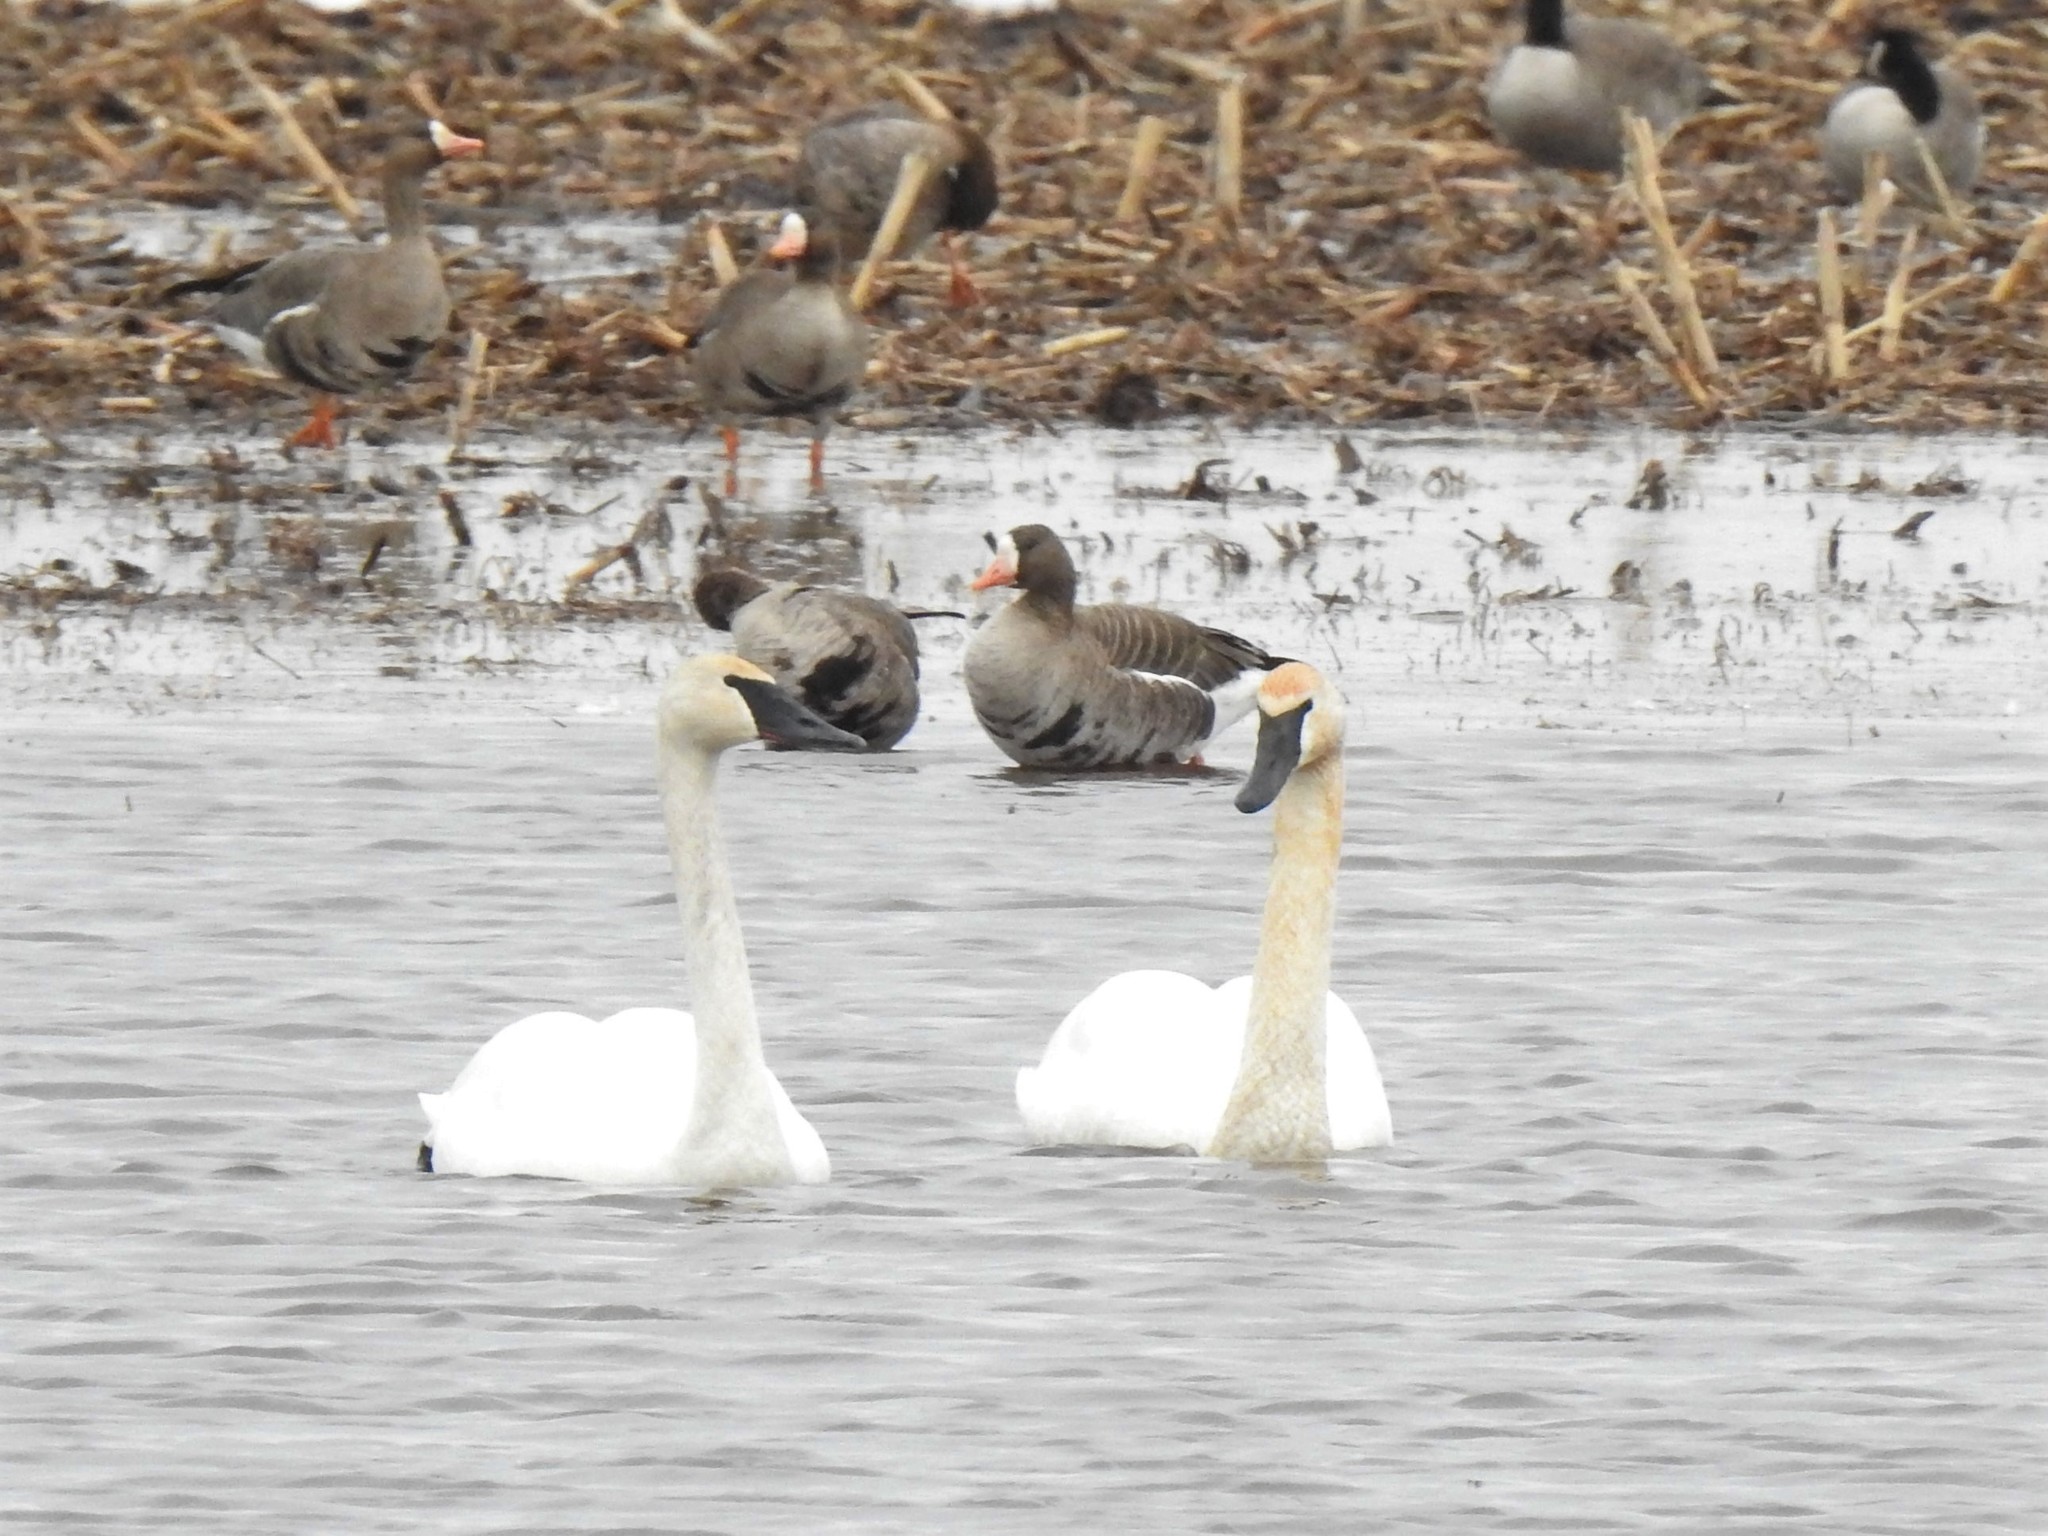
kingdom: Animalia
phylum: Chordata
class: Aves
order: Anseriformes
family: Anatidae
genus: Cygnus
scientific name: Cygnus buccinator
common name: Trumpeter swan
